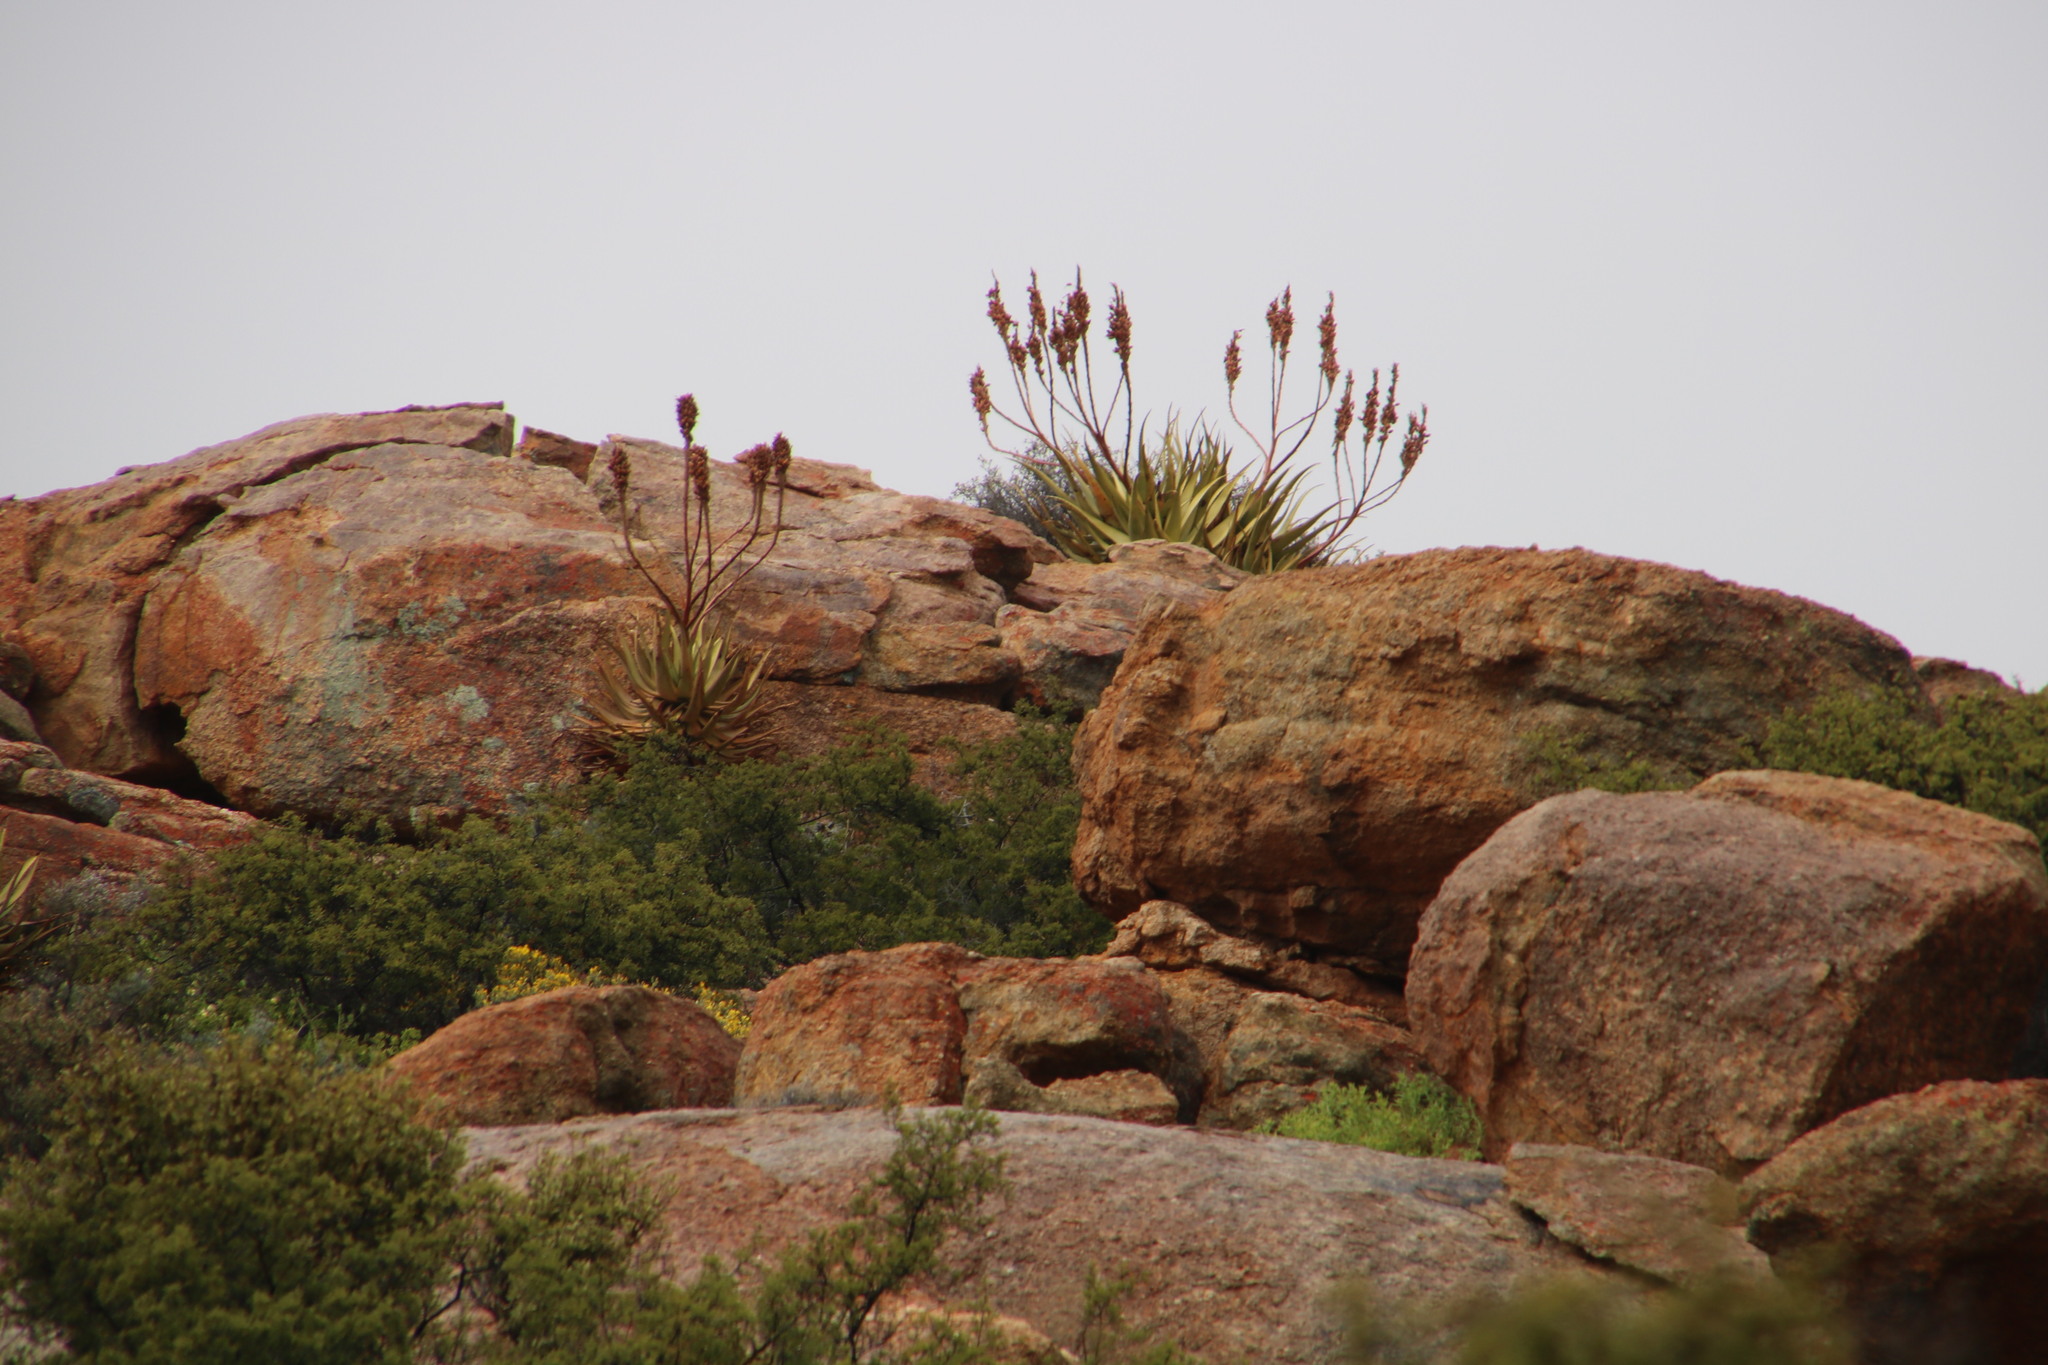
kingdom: Plantae
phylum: Tracheophyta
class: Liliopsida
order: Asparagales
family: Asphodelaceae
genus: Aloe
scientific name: Aloe khamiesensis
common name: Namaqua aloe
